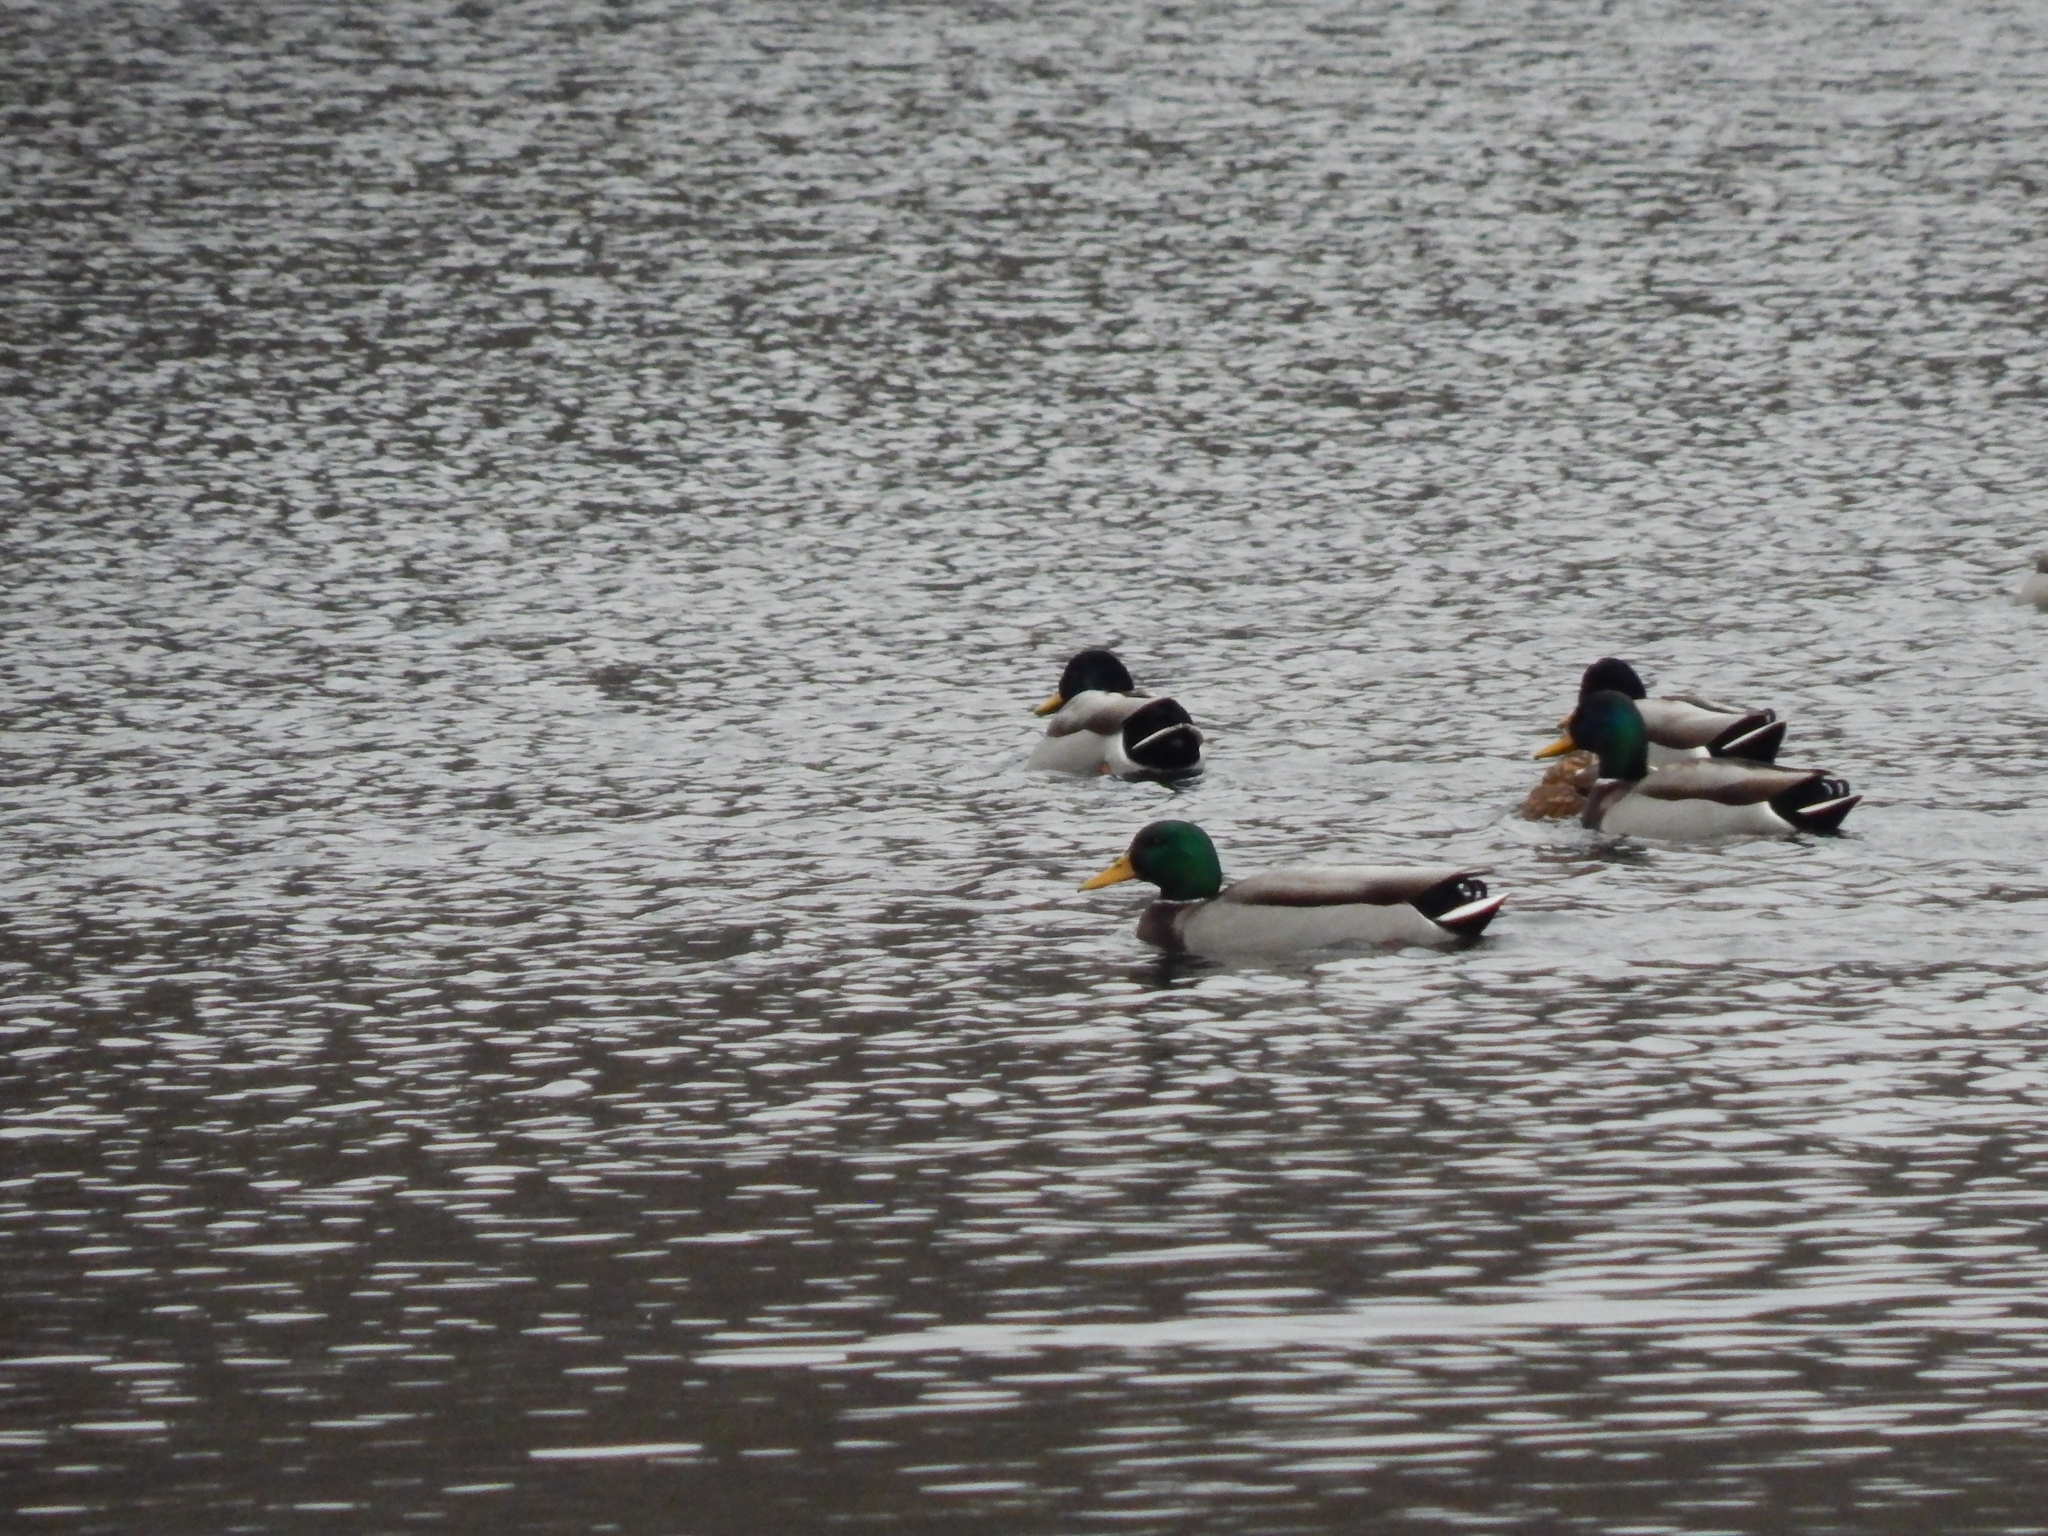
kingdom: Animalia
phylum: Chordata
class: Aves
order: Anseriformes
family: Anatidae
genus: Anas
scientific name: Anas platyrhynchos
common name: Mallard
